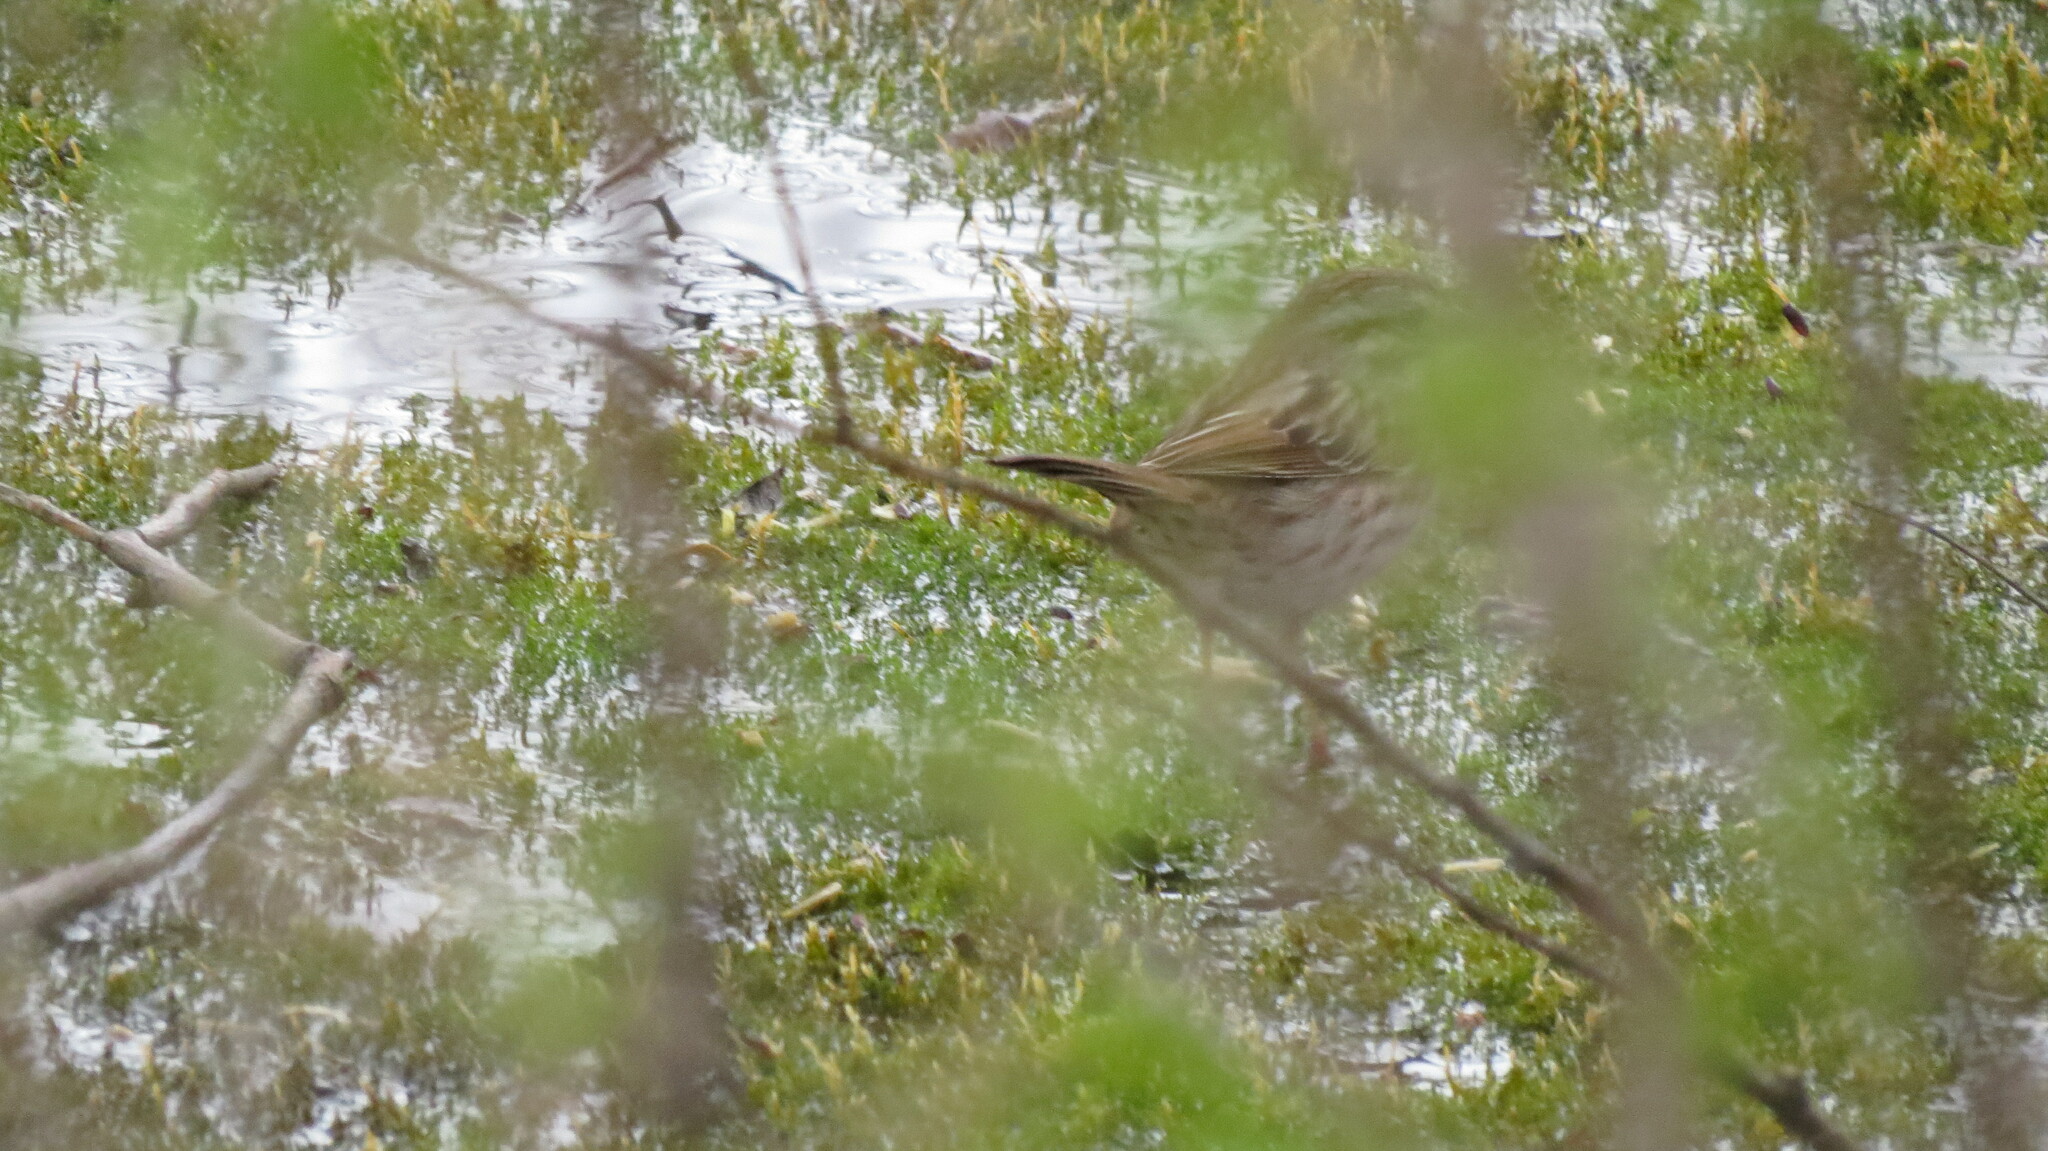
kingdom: Animalia
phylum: Chordata
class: Aves
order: Passeriformes
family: Passerellidae
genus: Melospiza
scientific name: Melospiza melodia
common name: Song sparrow
